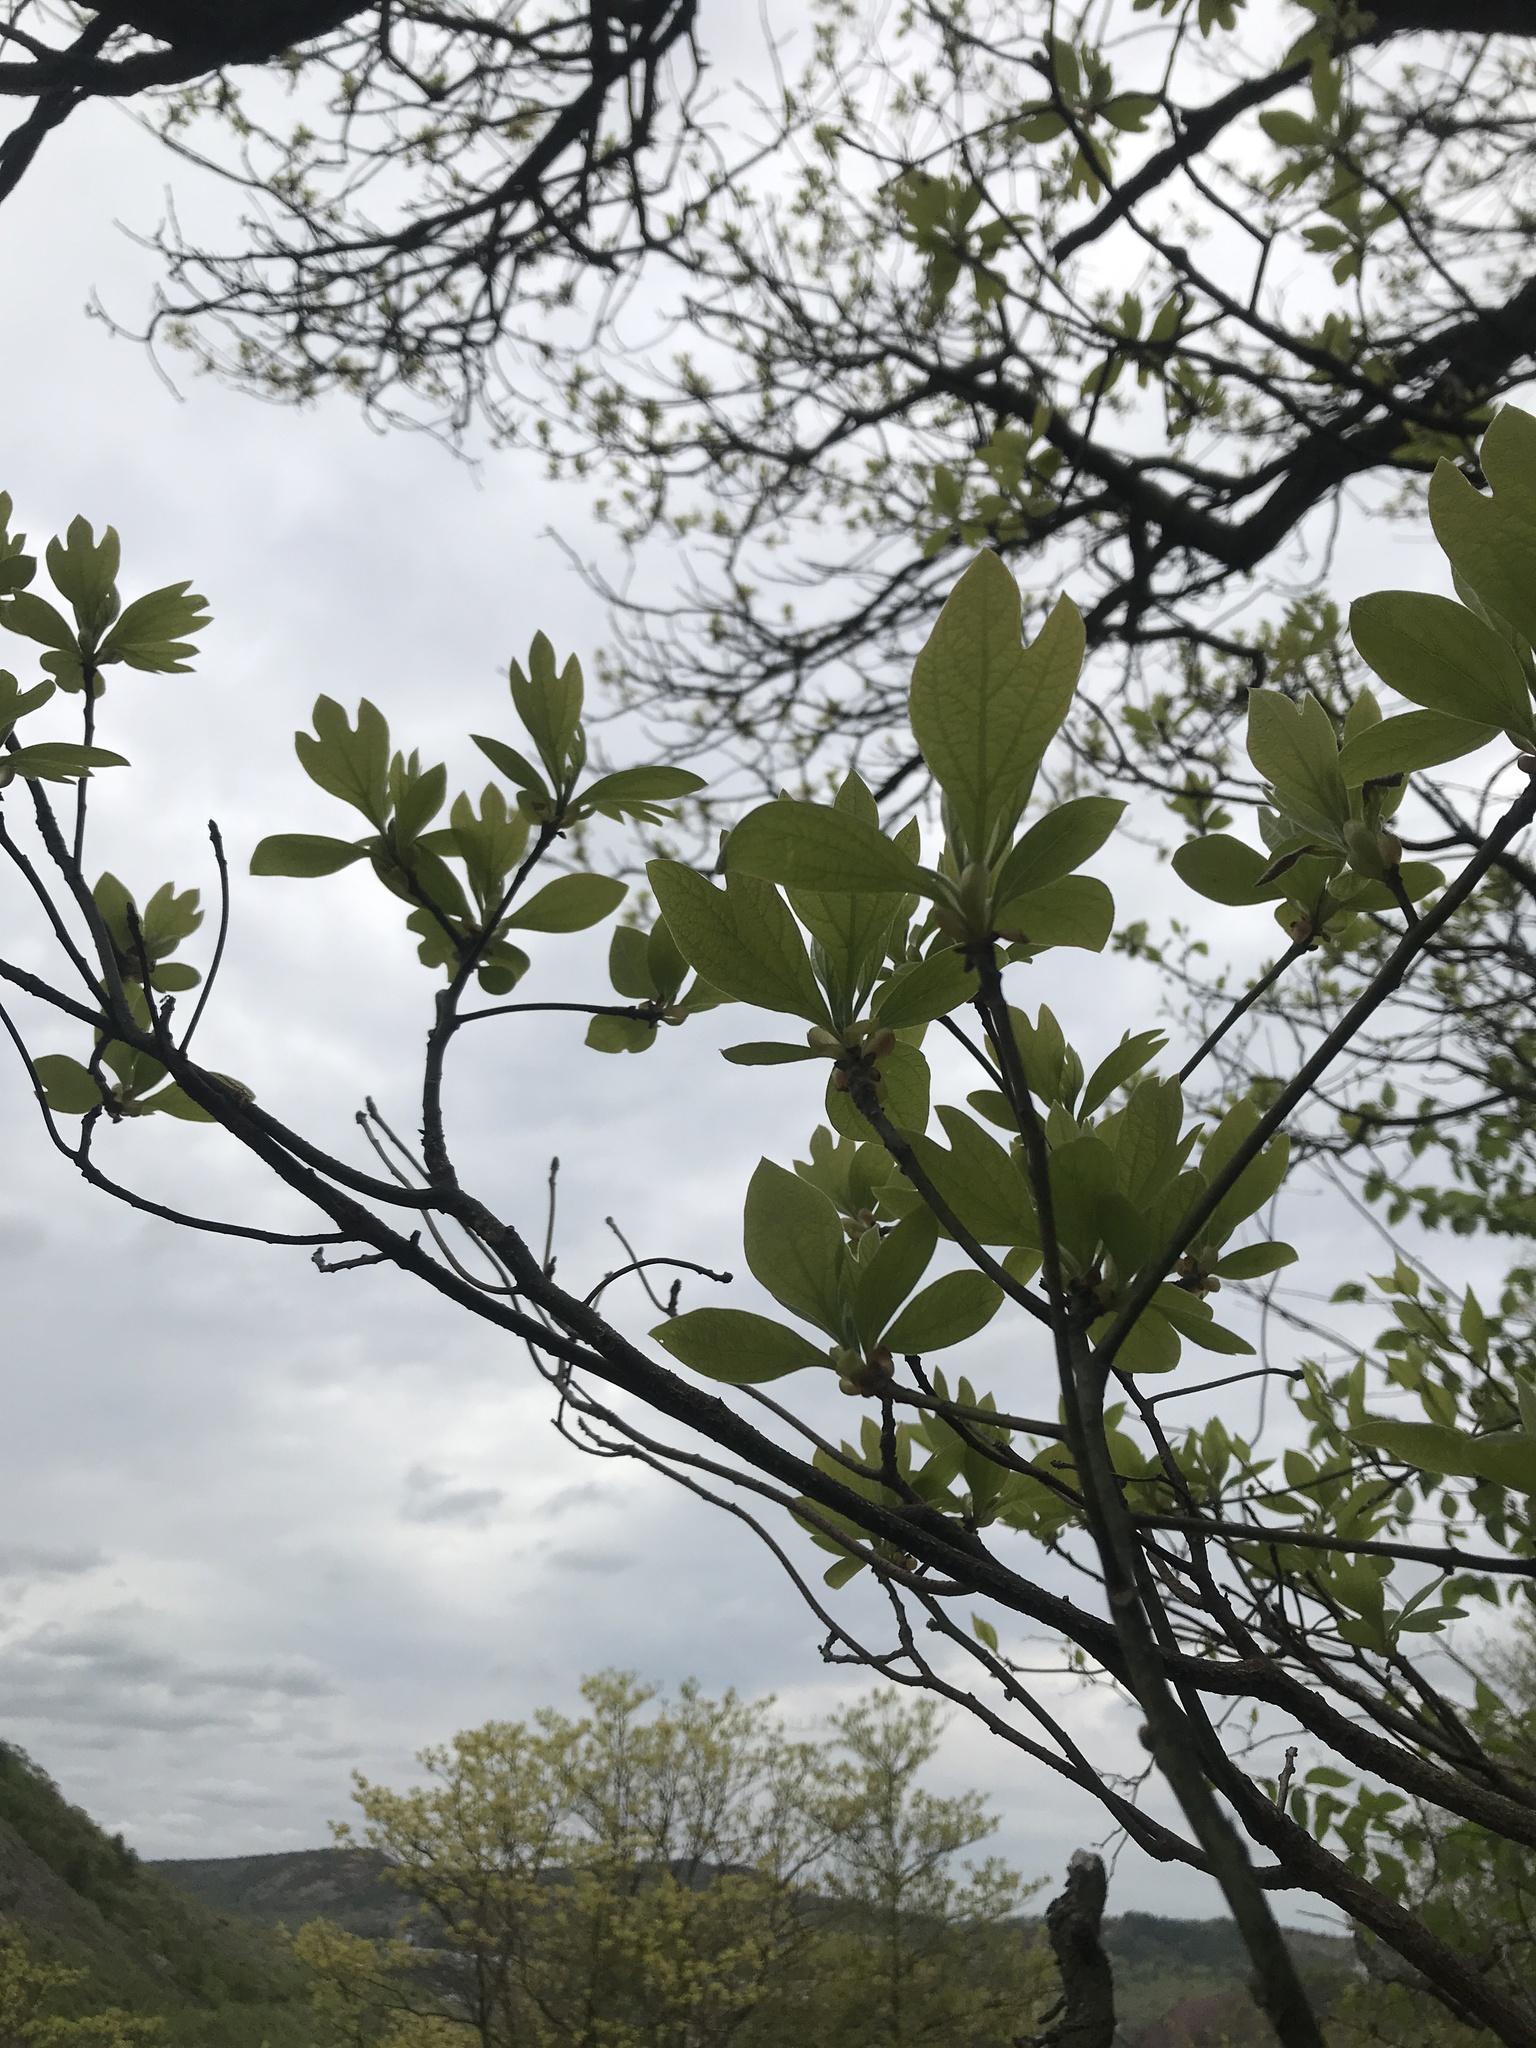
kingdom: Plantae
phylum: Tracheophyta
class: Magnoliopsida
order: Laurales
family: Lauraceae
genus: Sassafras
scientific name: Sassafras albidum
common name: Sassafras
